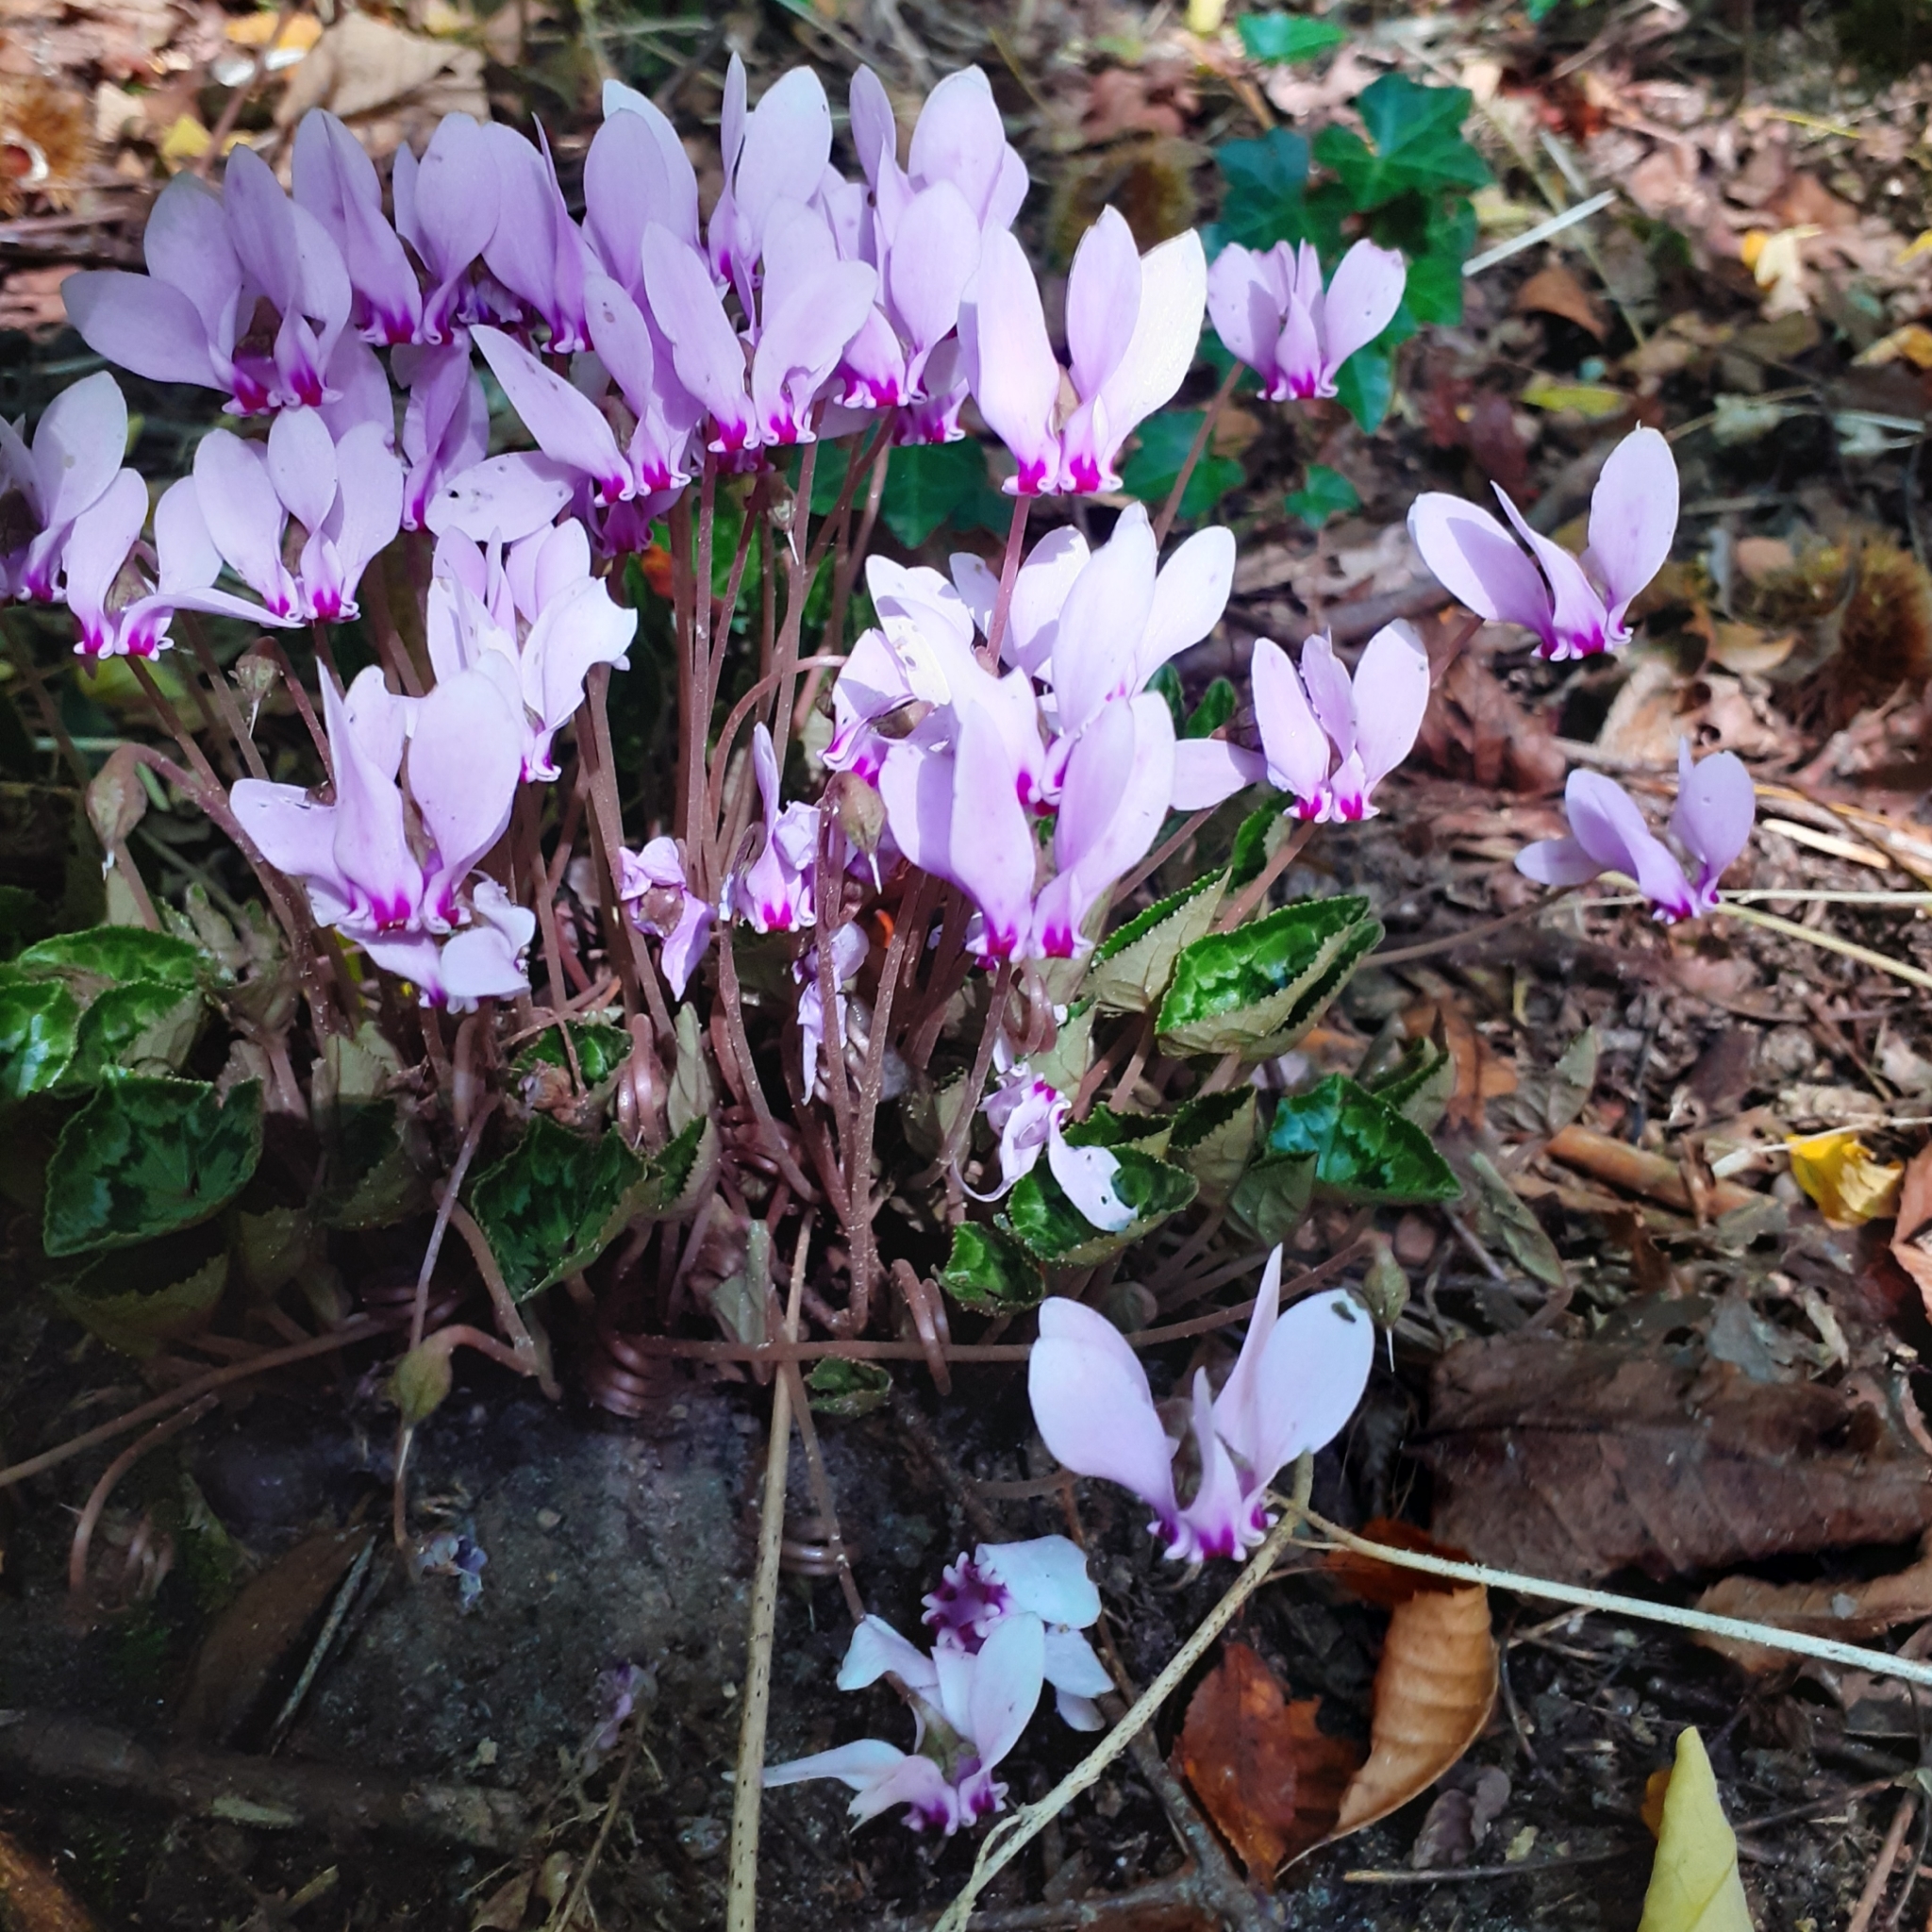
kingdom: Plantae
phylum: Tracheophyta
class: Magnoliopsida
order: Ericales
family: Primulaceae
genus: Cyclamen
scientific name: Cyclamen hederifolium
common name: Sowbread
